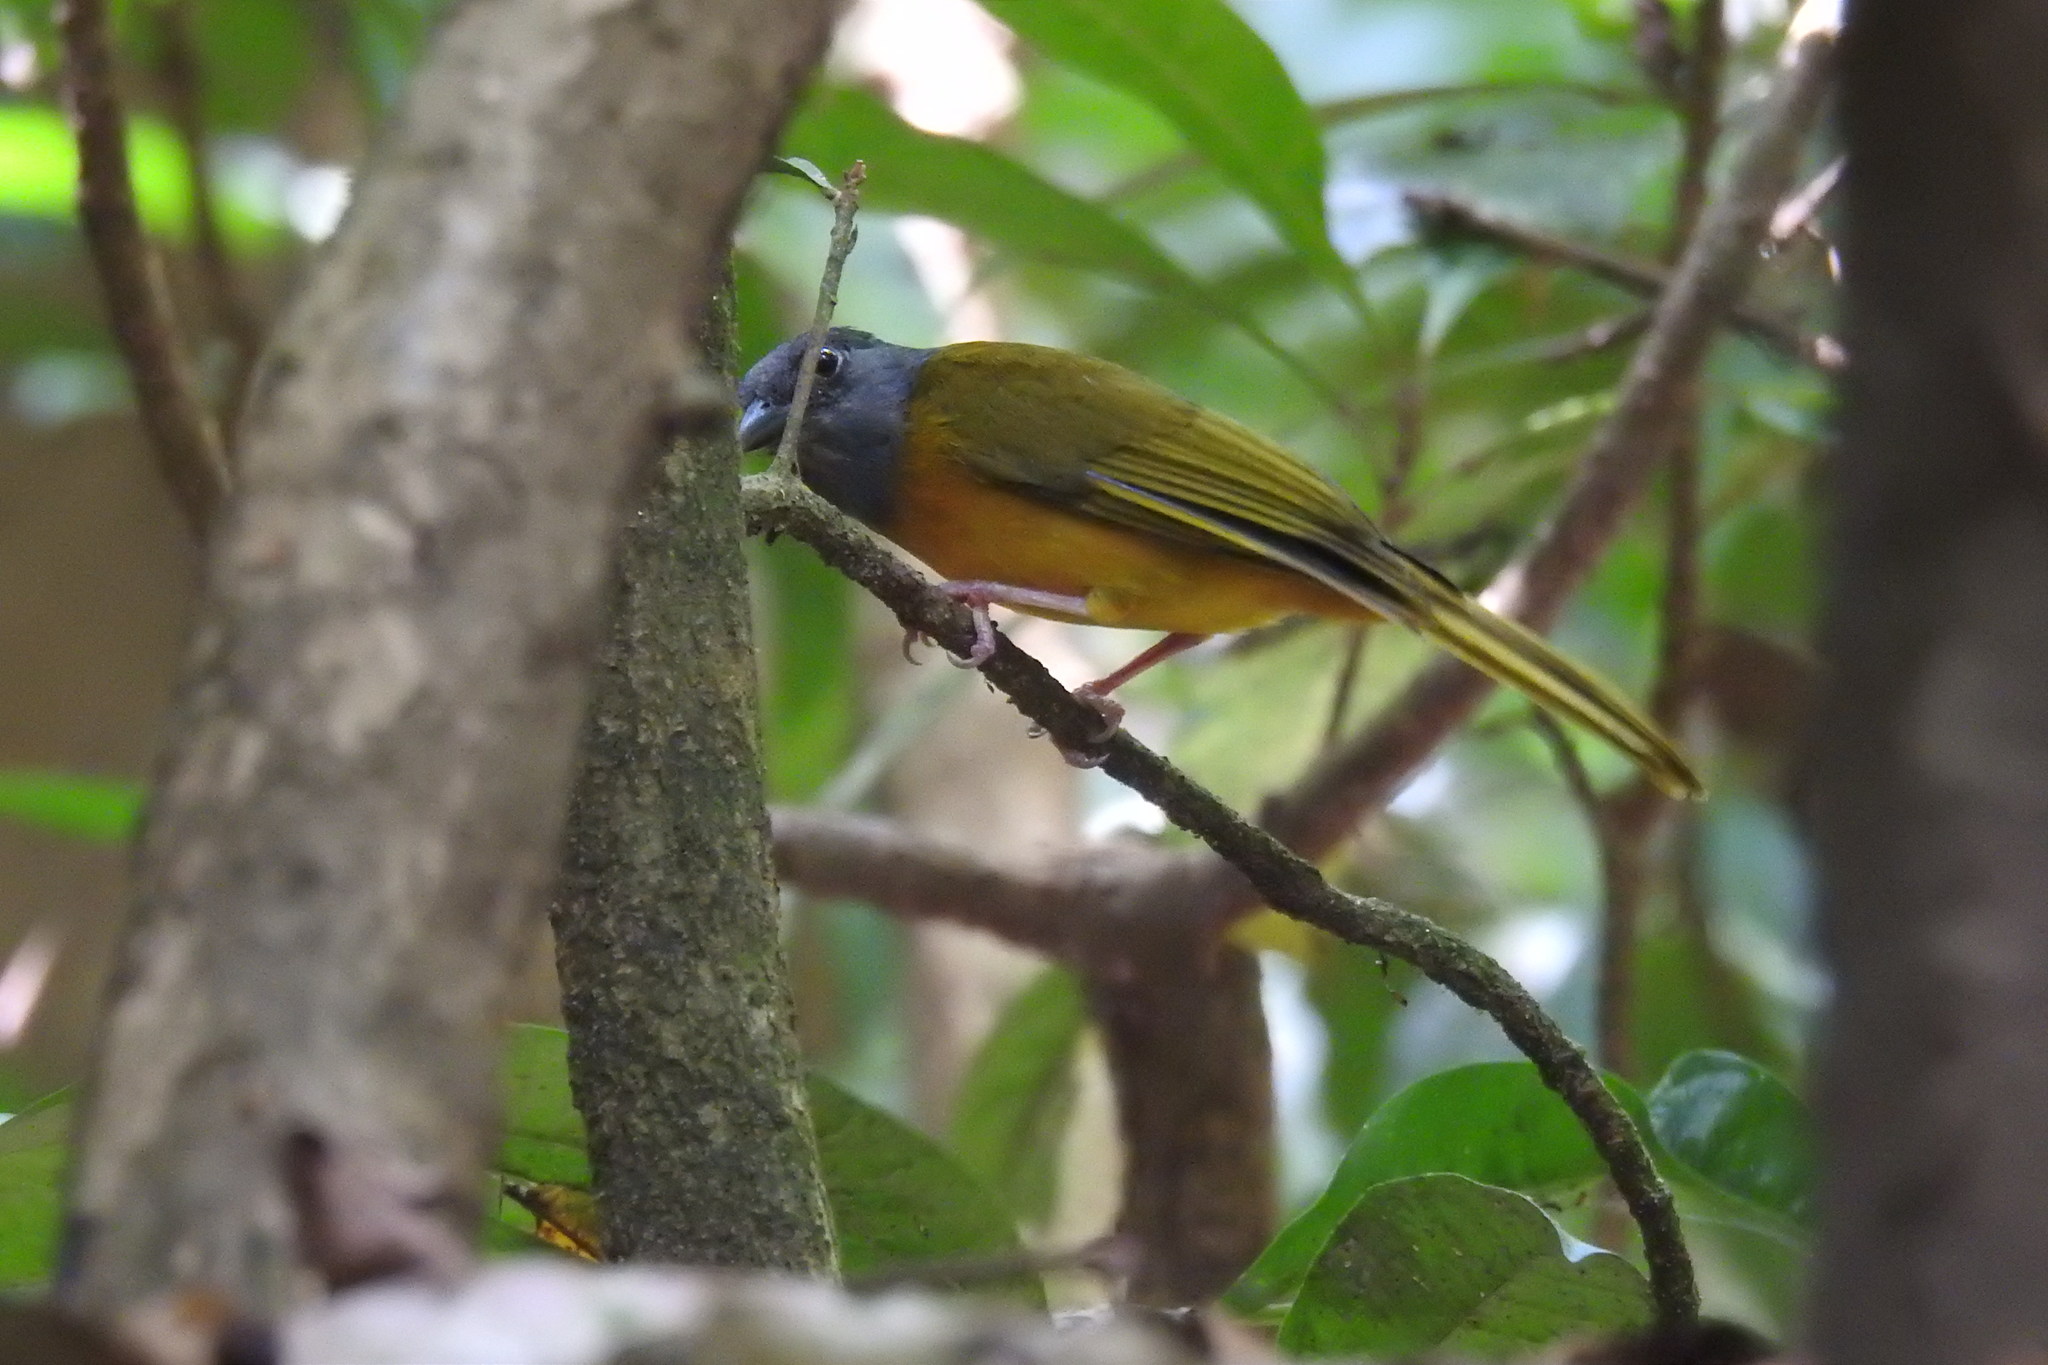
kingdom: Animalia
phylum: Chordata
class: Aves
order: Passeriformes
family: Thraupidae
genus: Eucometis
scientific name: Eucometis penicillata
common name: Grey-headed tanager
